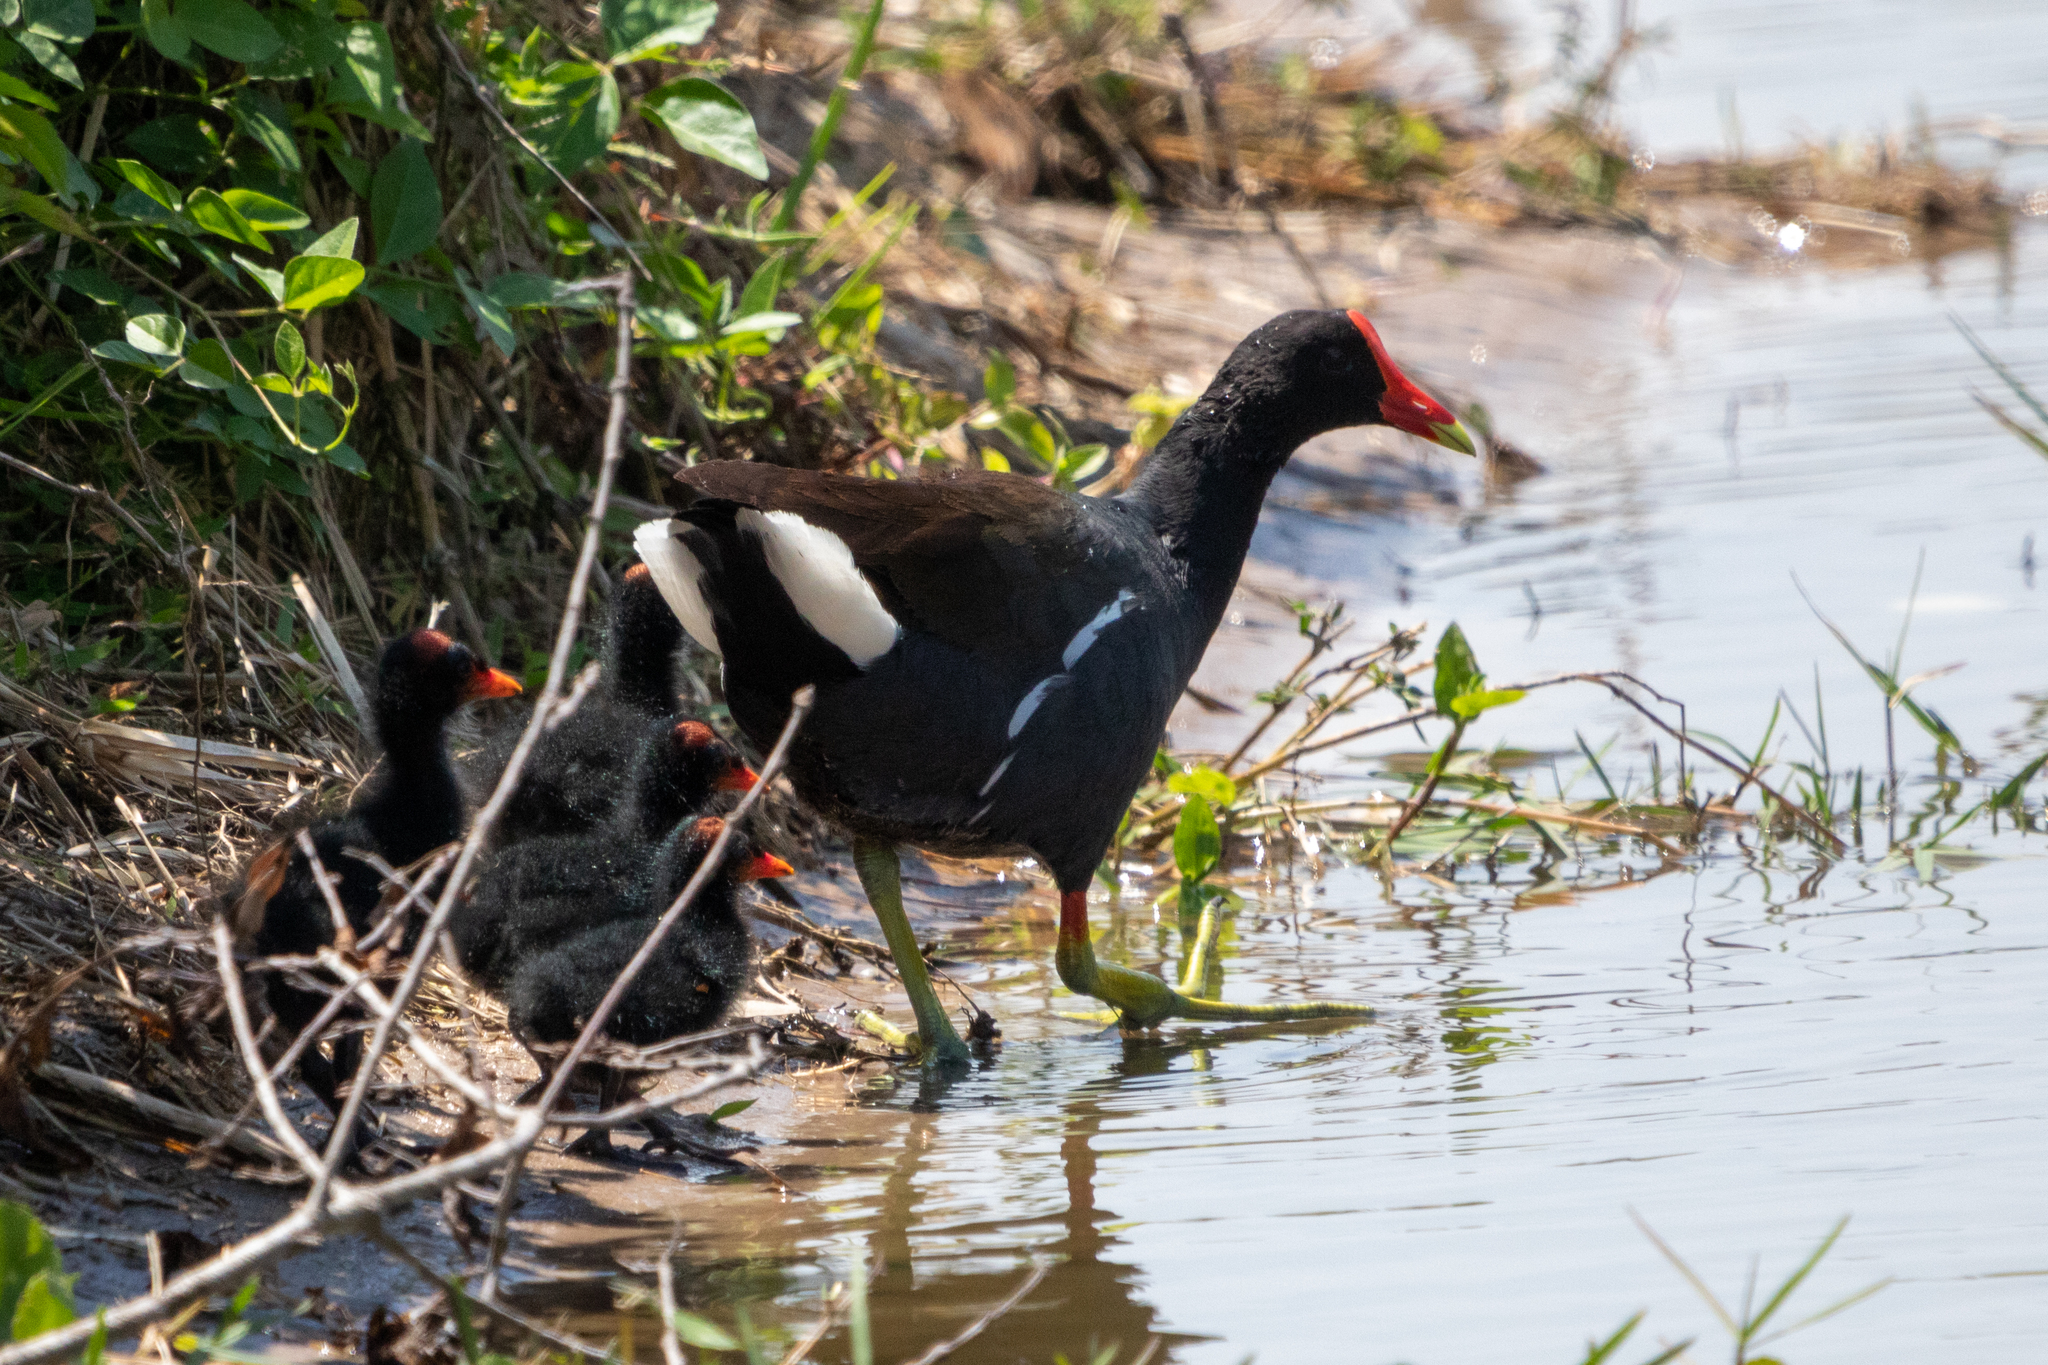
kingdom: Animalia
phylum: Chordata
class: Aves
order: Gruiformes
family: Rallidae
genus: Gallinula
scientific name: Gallinula chloropus
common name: Common moorhen
